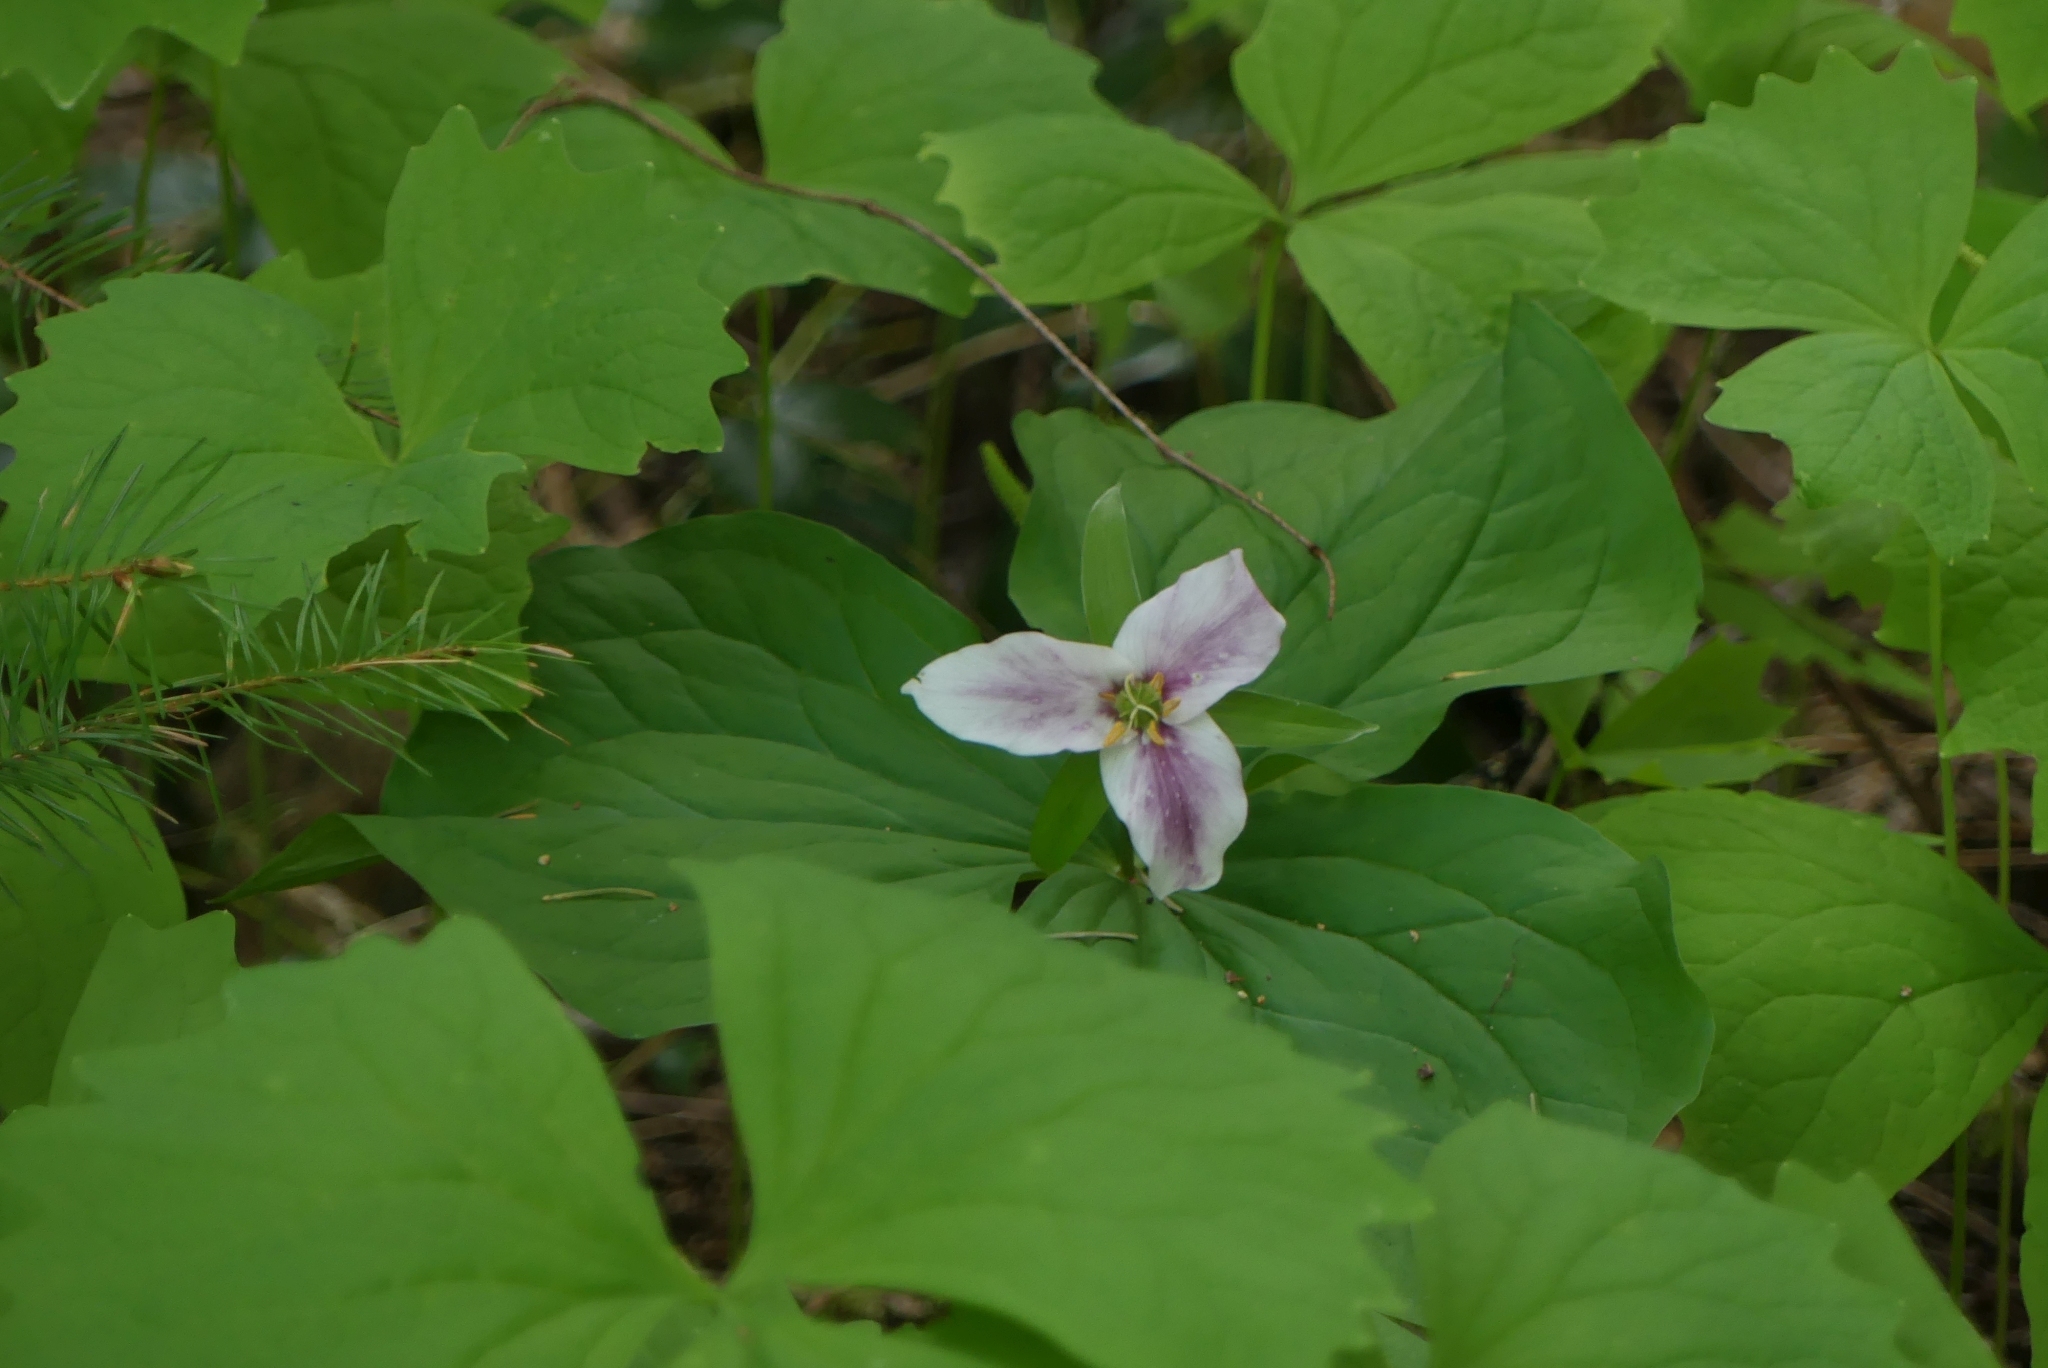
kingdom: Plantae
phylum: Tracheophyta
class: Liliopsida
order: Liliales
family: Melanthiaceae
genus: Trillium
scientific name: Trillium ovatum
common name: Pacific trillium
